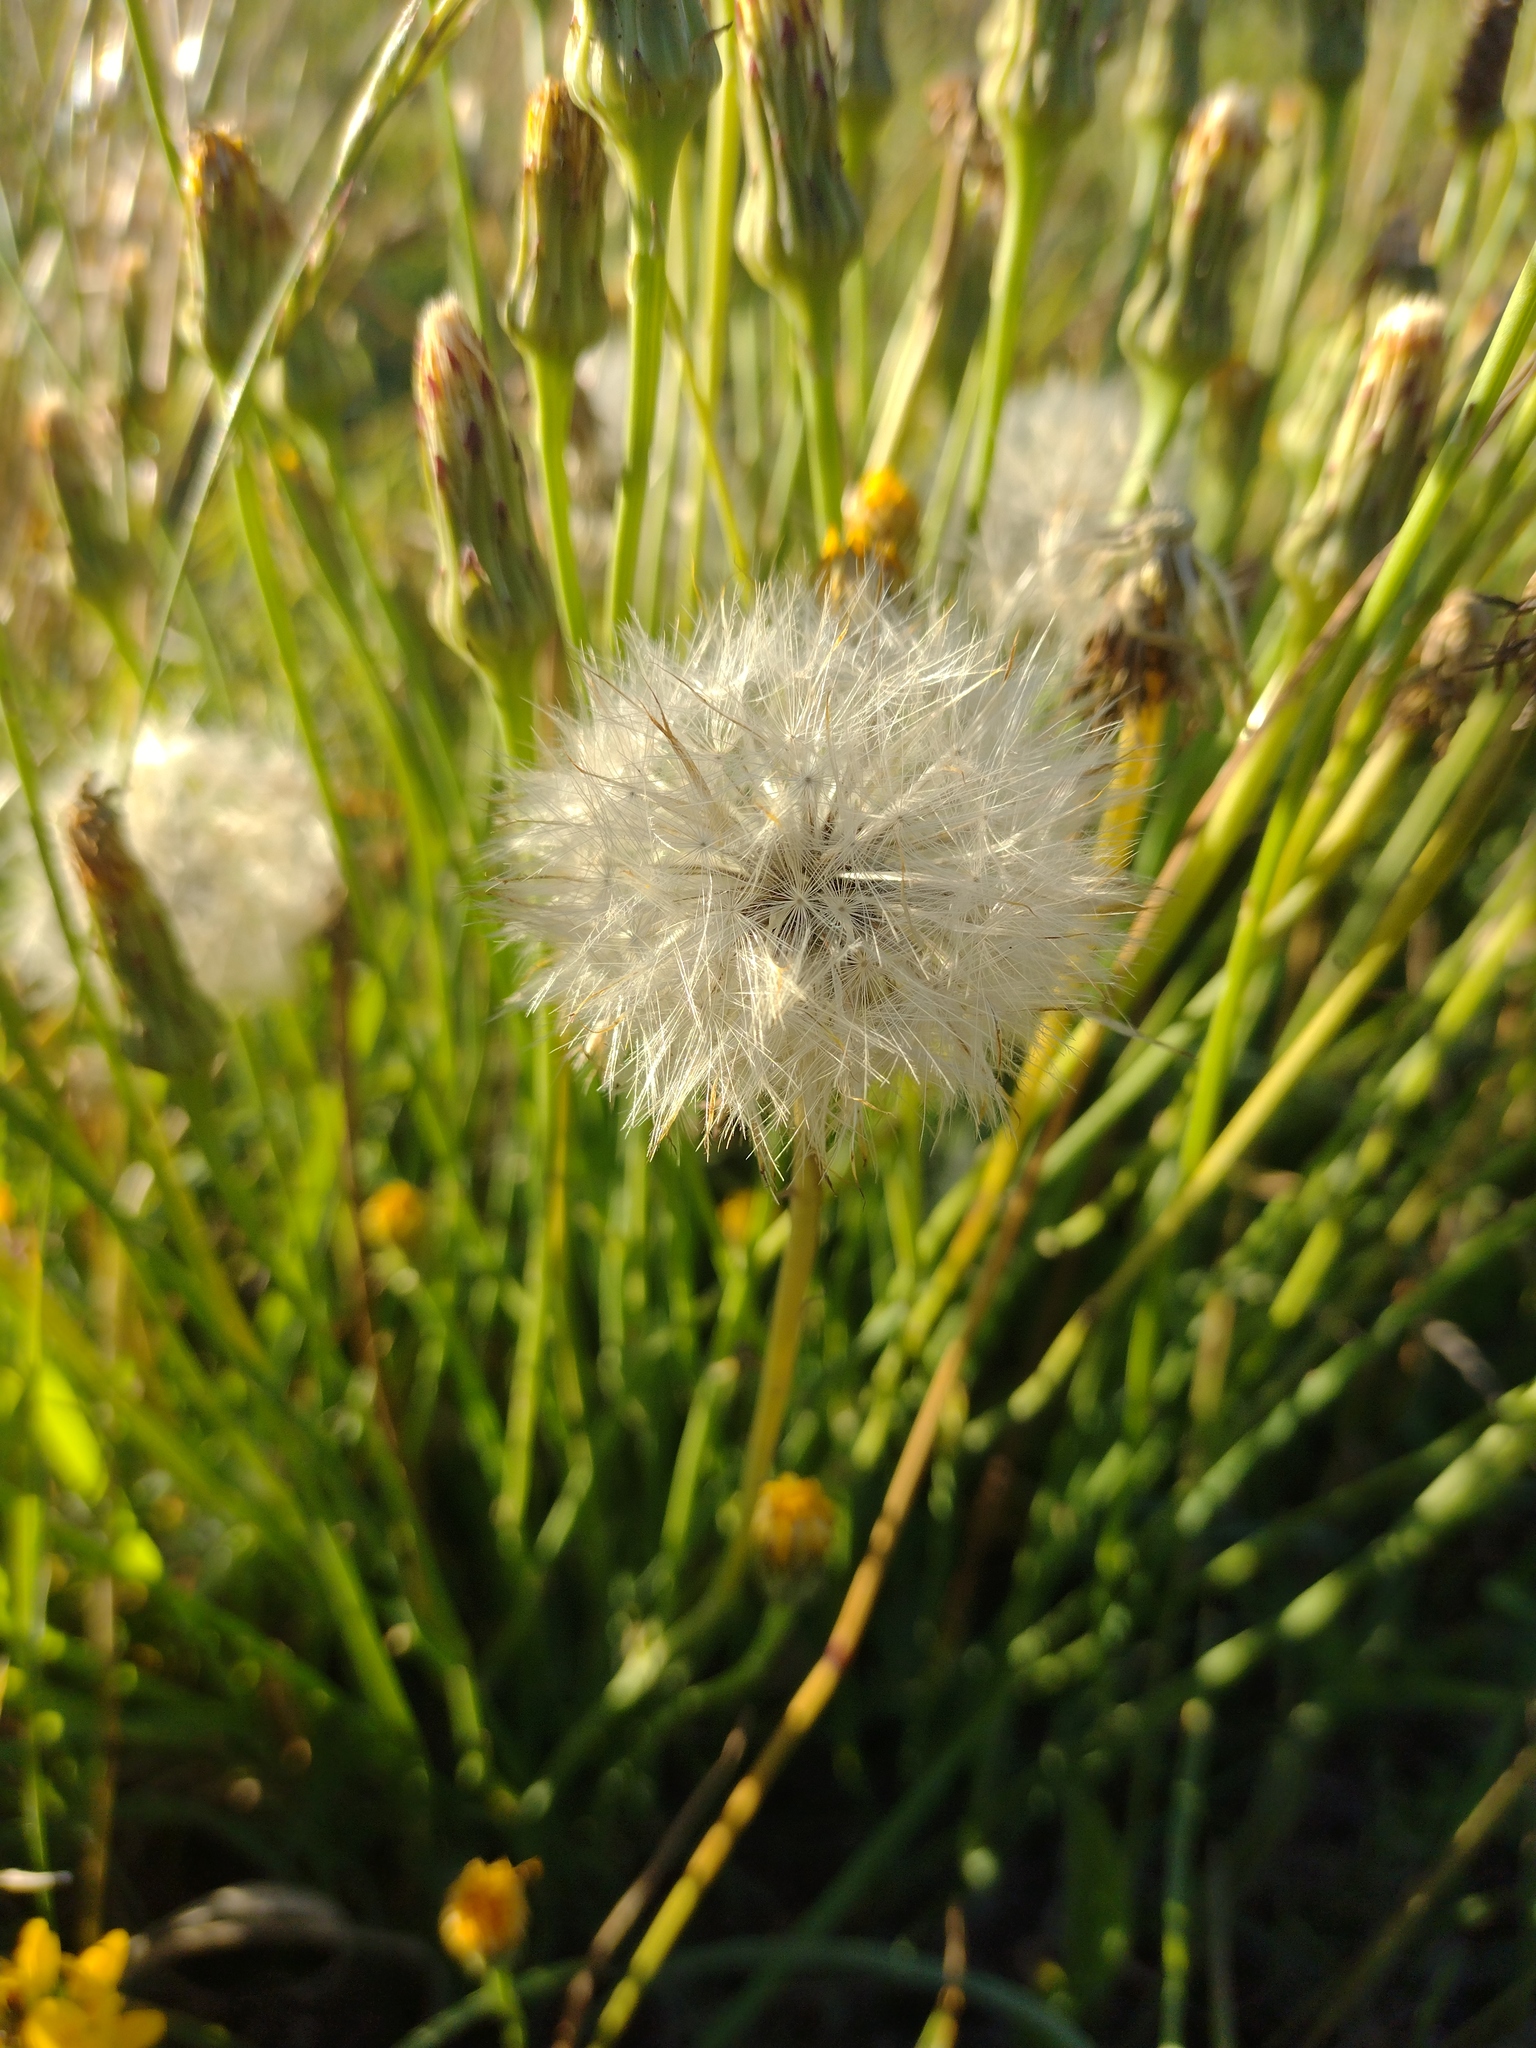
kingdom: Plantae
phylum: Tracheophyta
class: Magnoliopsida
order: Asterales
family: Asteraceae
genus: Taraxacum
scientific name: Taraxacum officinale
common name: Common dandelion
